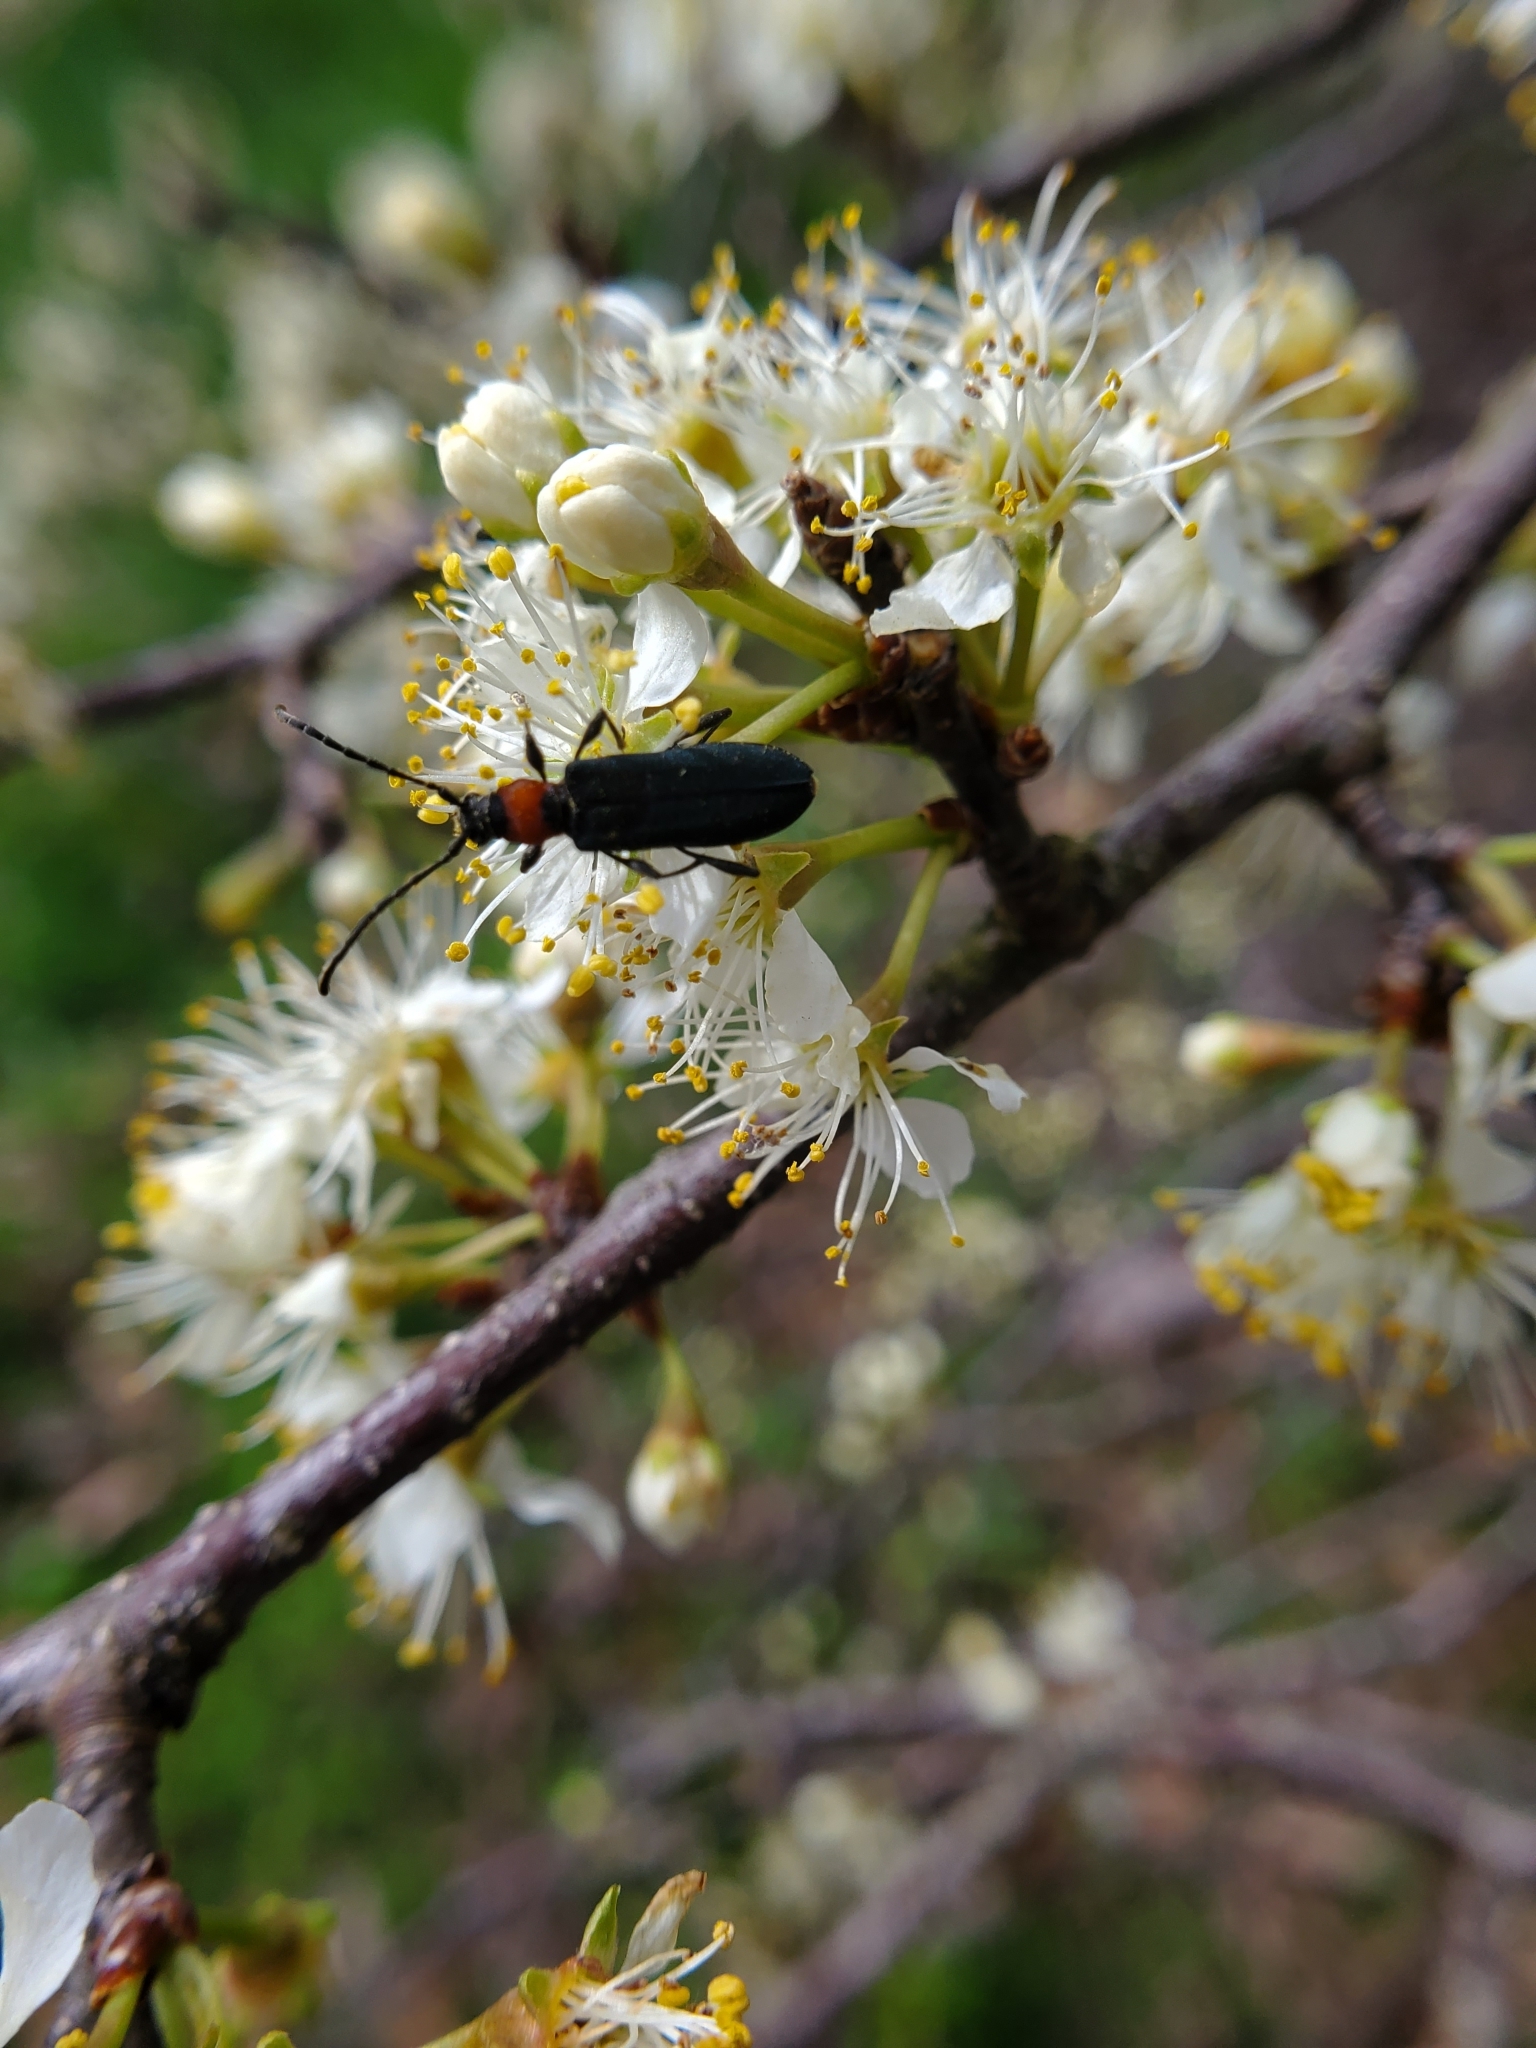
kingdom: Animalia
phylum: Arthropoda
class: Insecta
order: Coleoptera
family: Cerambycidae
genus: Dere
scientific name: Dere thoracica
